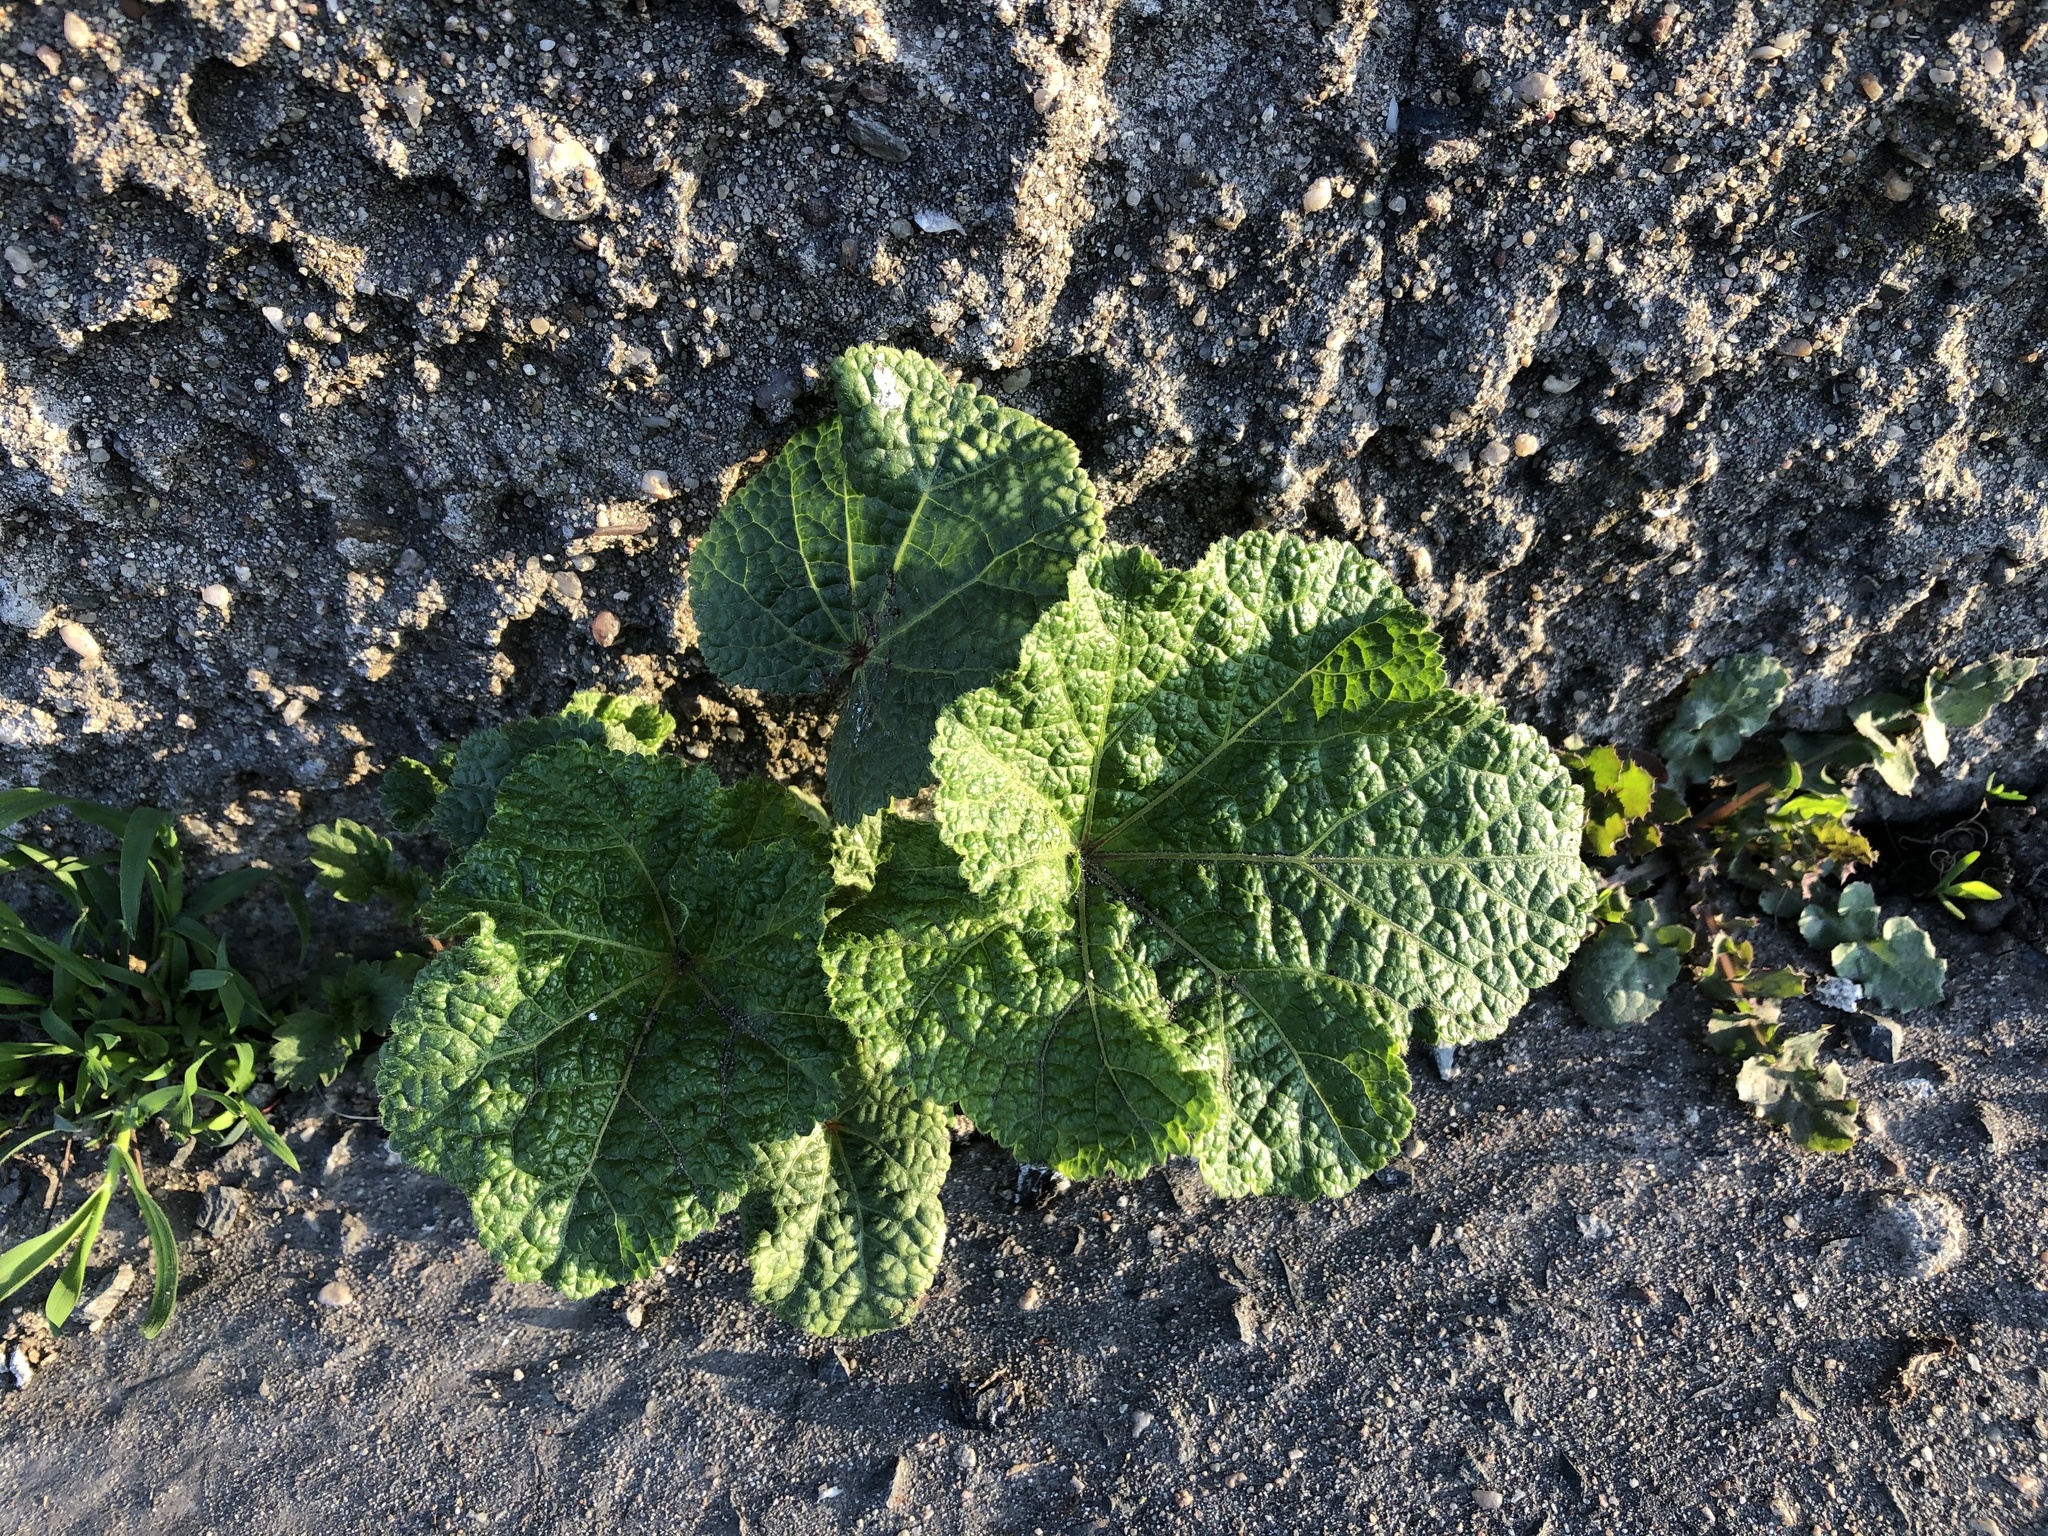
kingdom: Plantae
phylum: Tracheophyta
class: Magnoliopsida
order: Malvales
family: Malvaceae
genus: Alcea
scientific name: Alcea rosea
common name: Hollyhock
